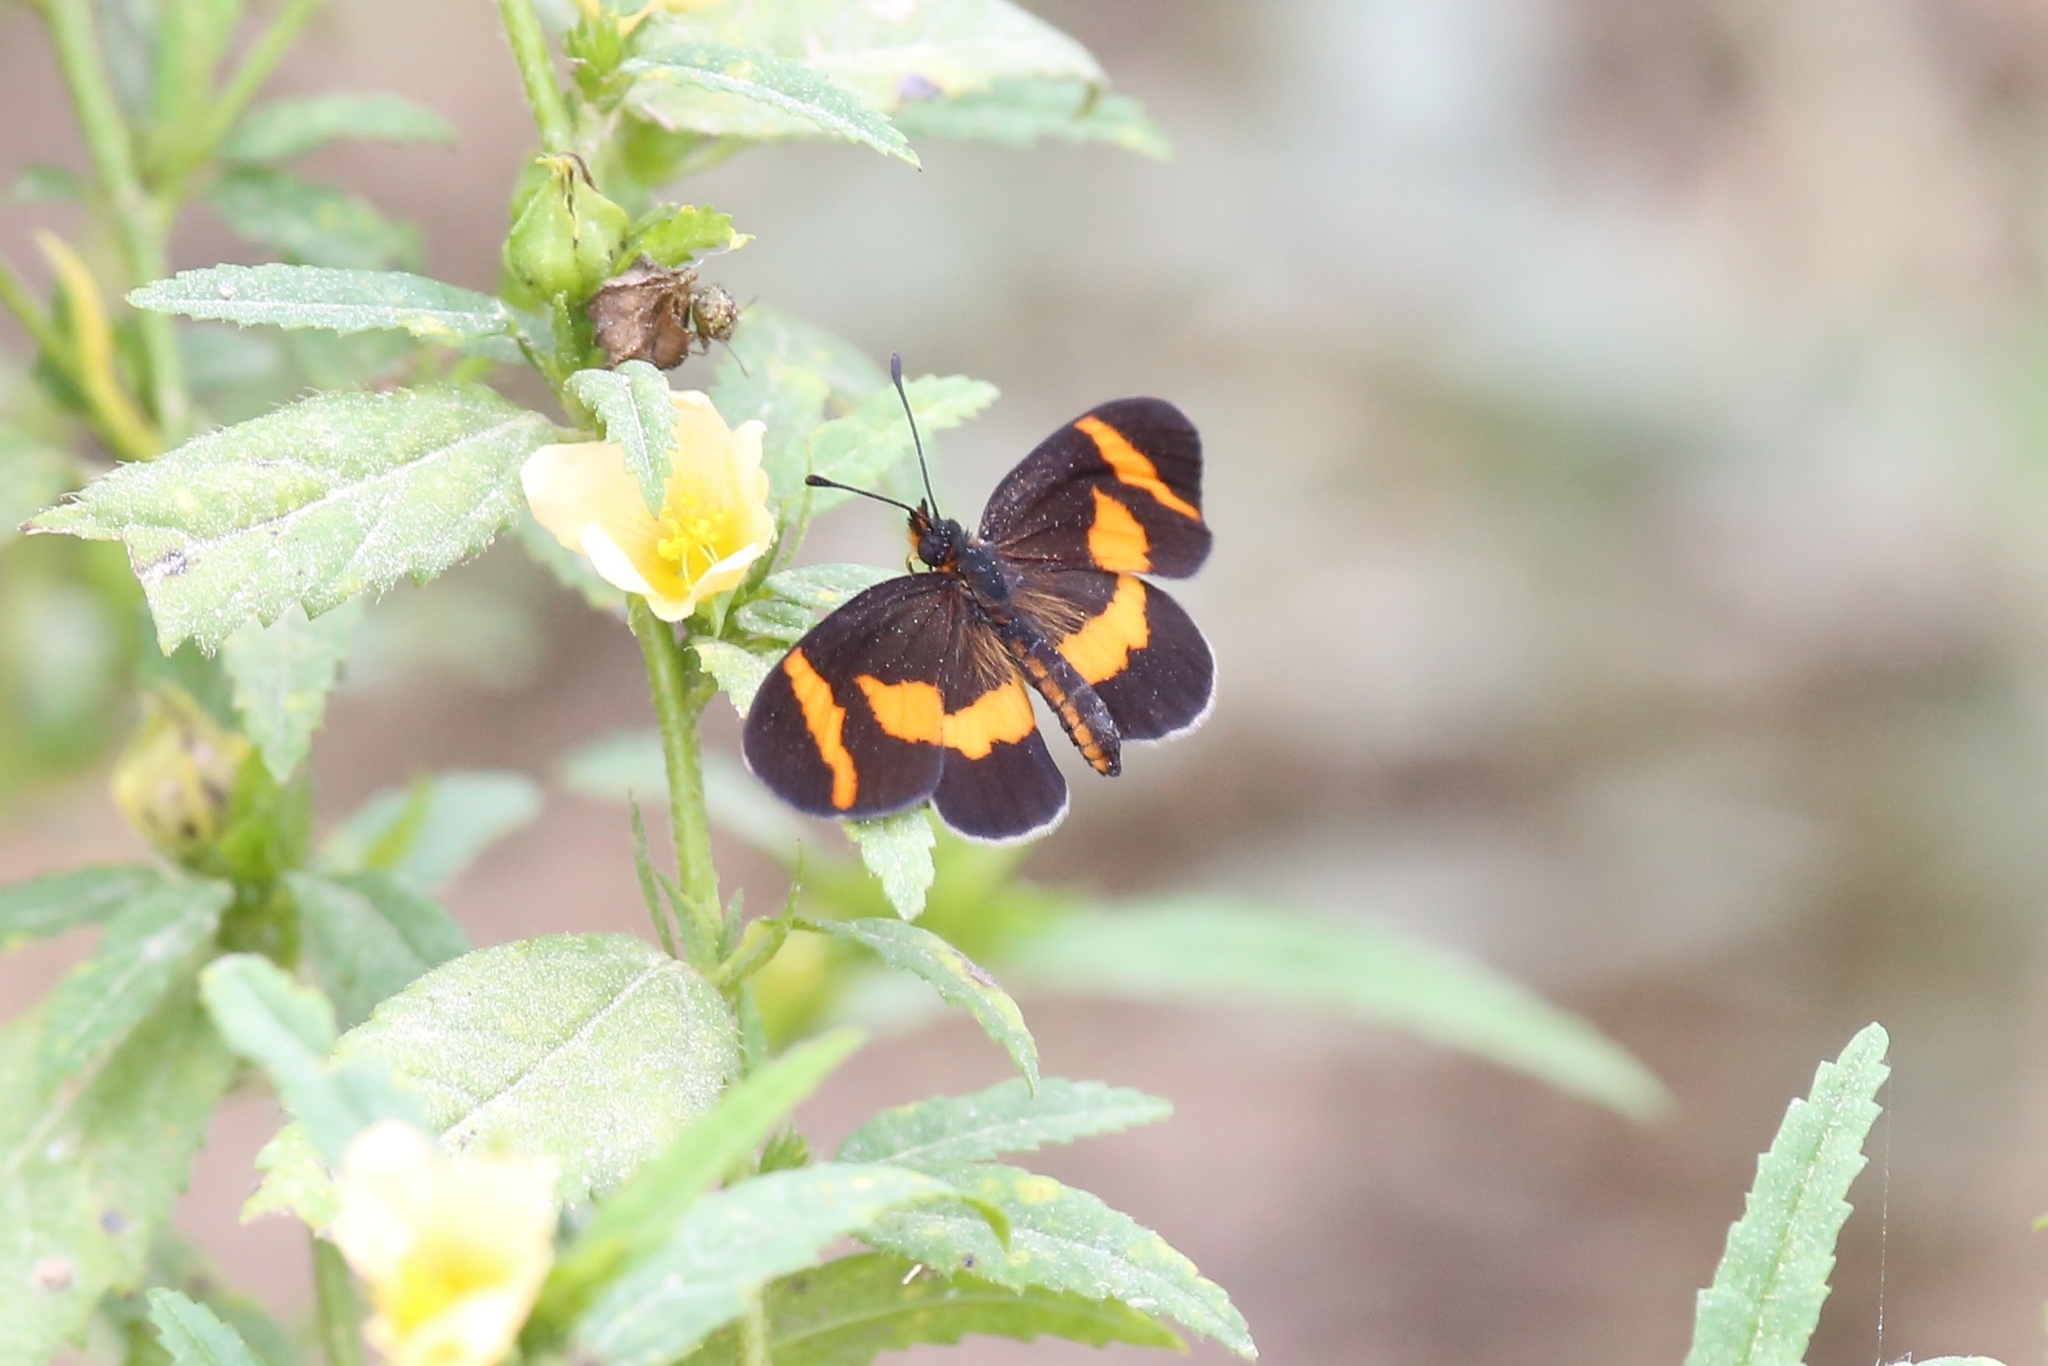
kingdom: Animalia
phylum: Arthropoda
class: Insecta
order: Lepidoptera
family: Nymphalidae
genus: Microtia
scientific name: Microtia elva
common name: Elf
